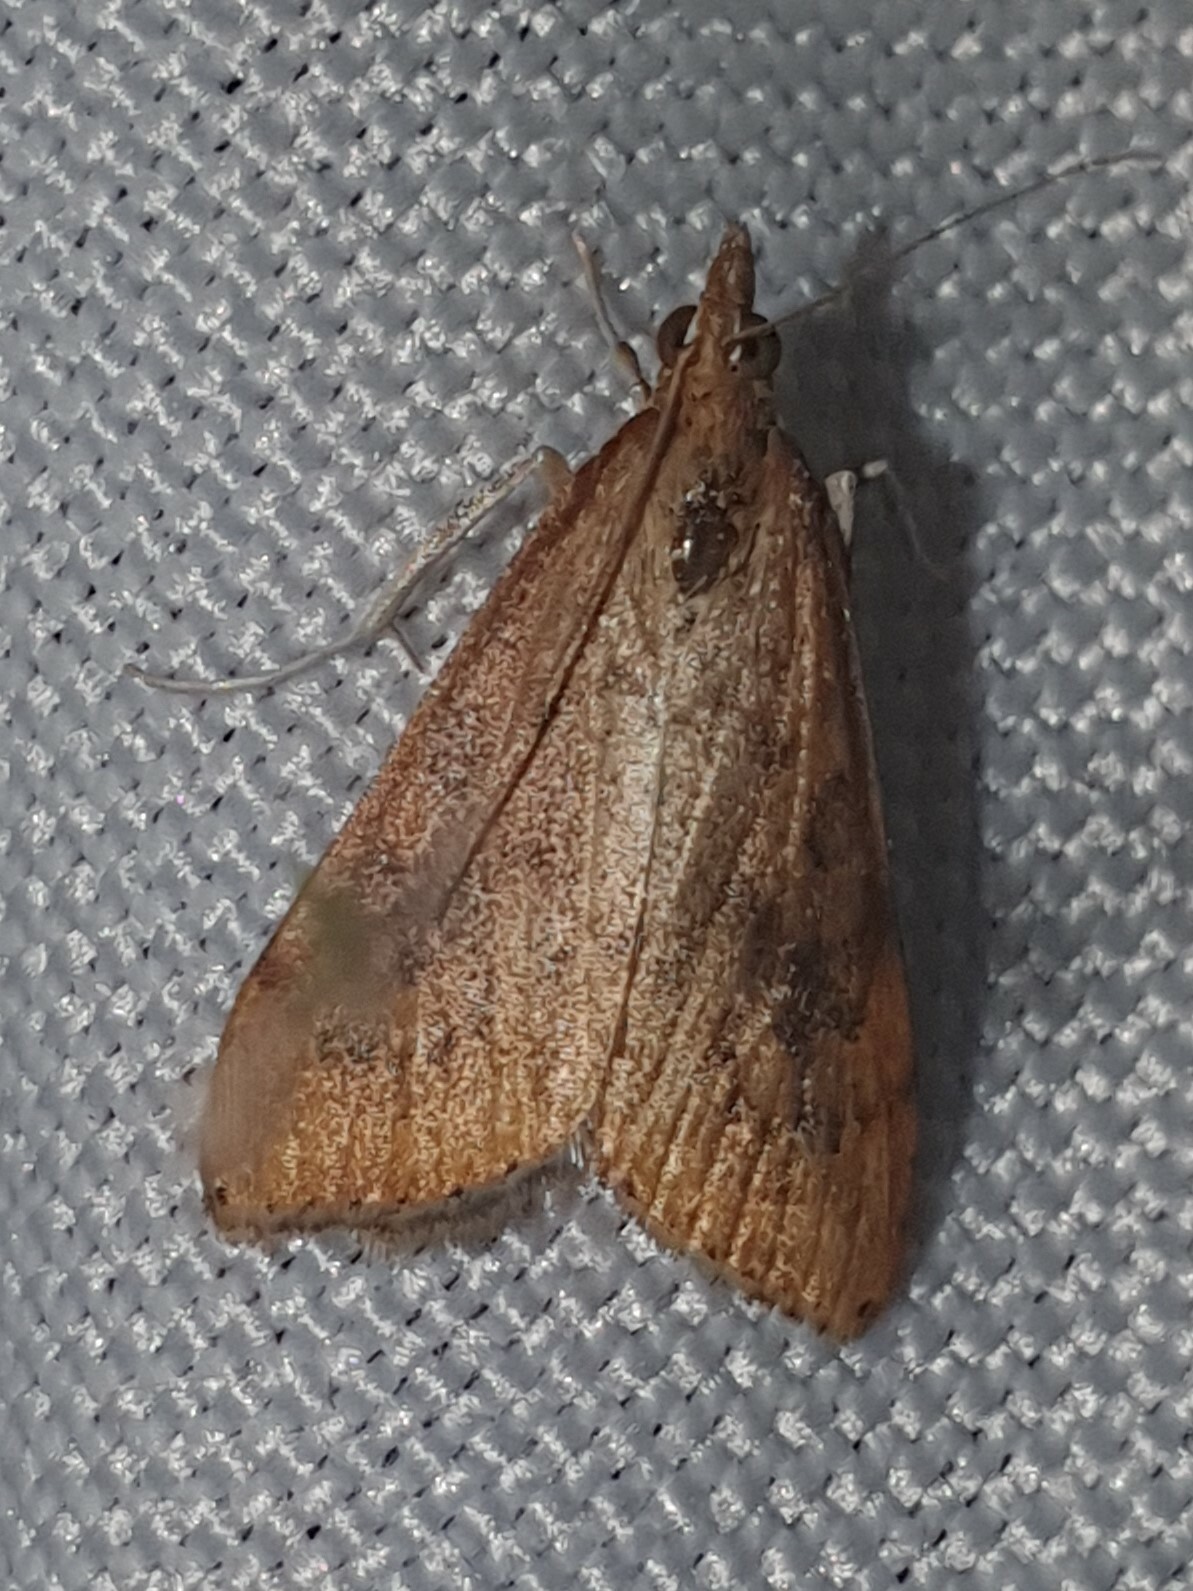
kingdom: Animalia
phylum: Arthropoda
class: Insecta
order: Lepidoptera
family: Crambidae
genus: Udea
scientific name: Udea ferrugalis
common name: Rusty dot
